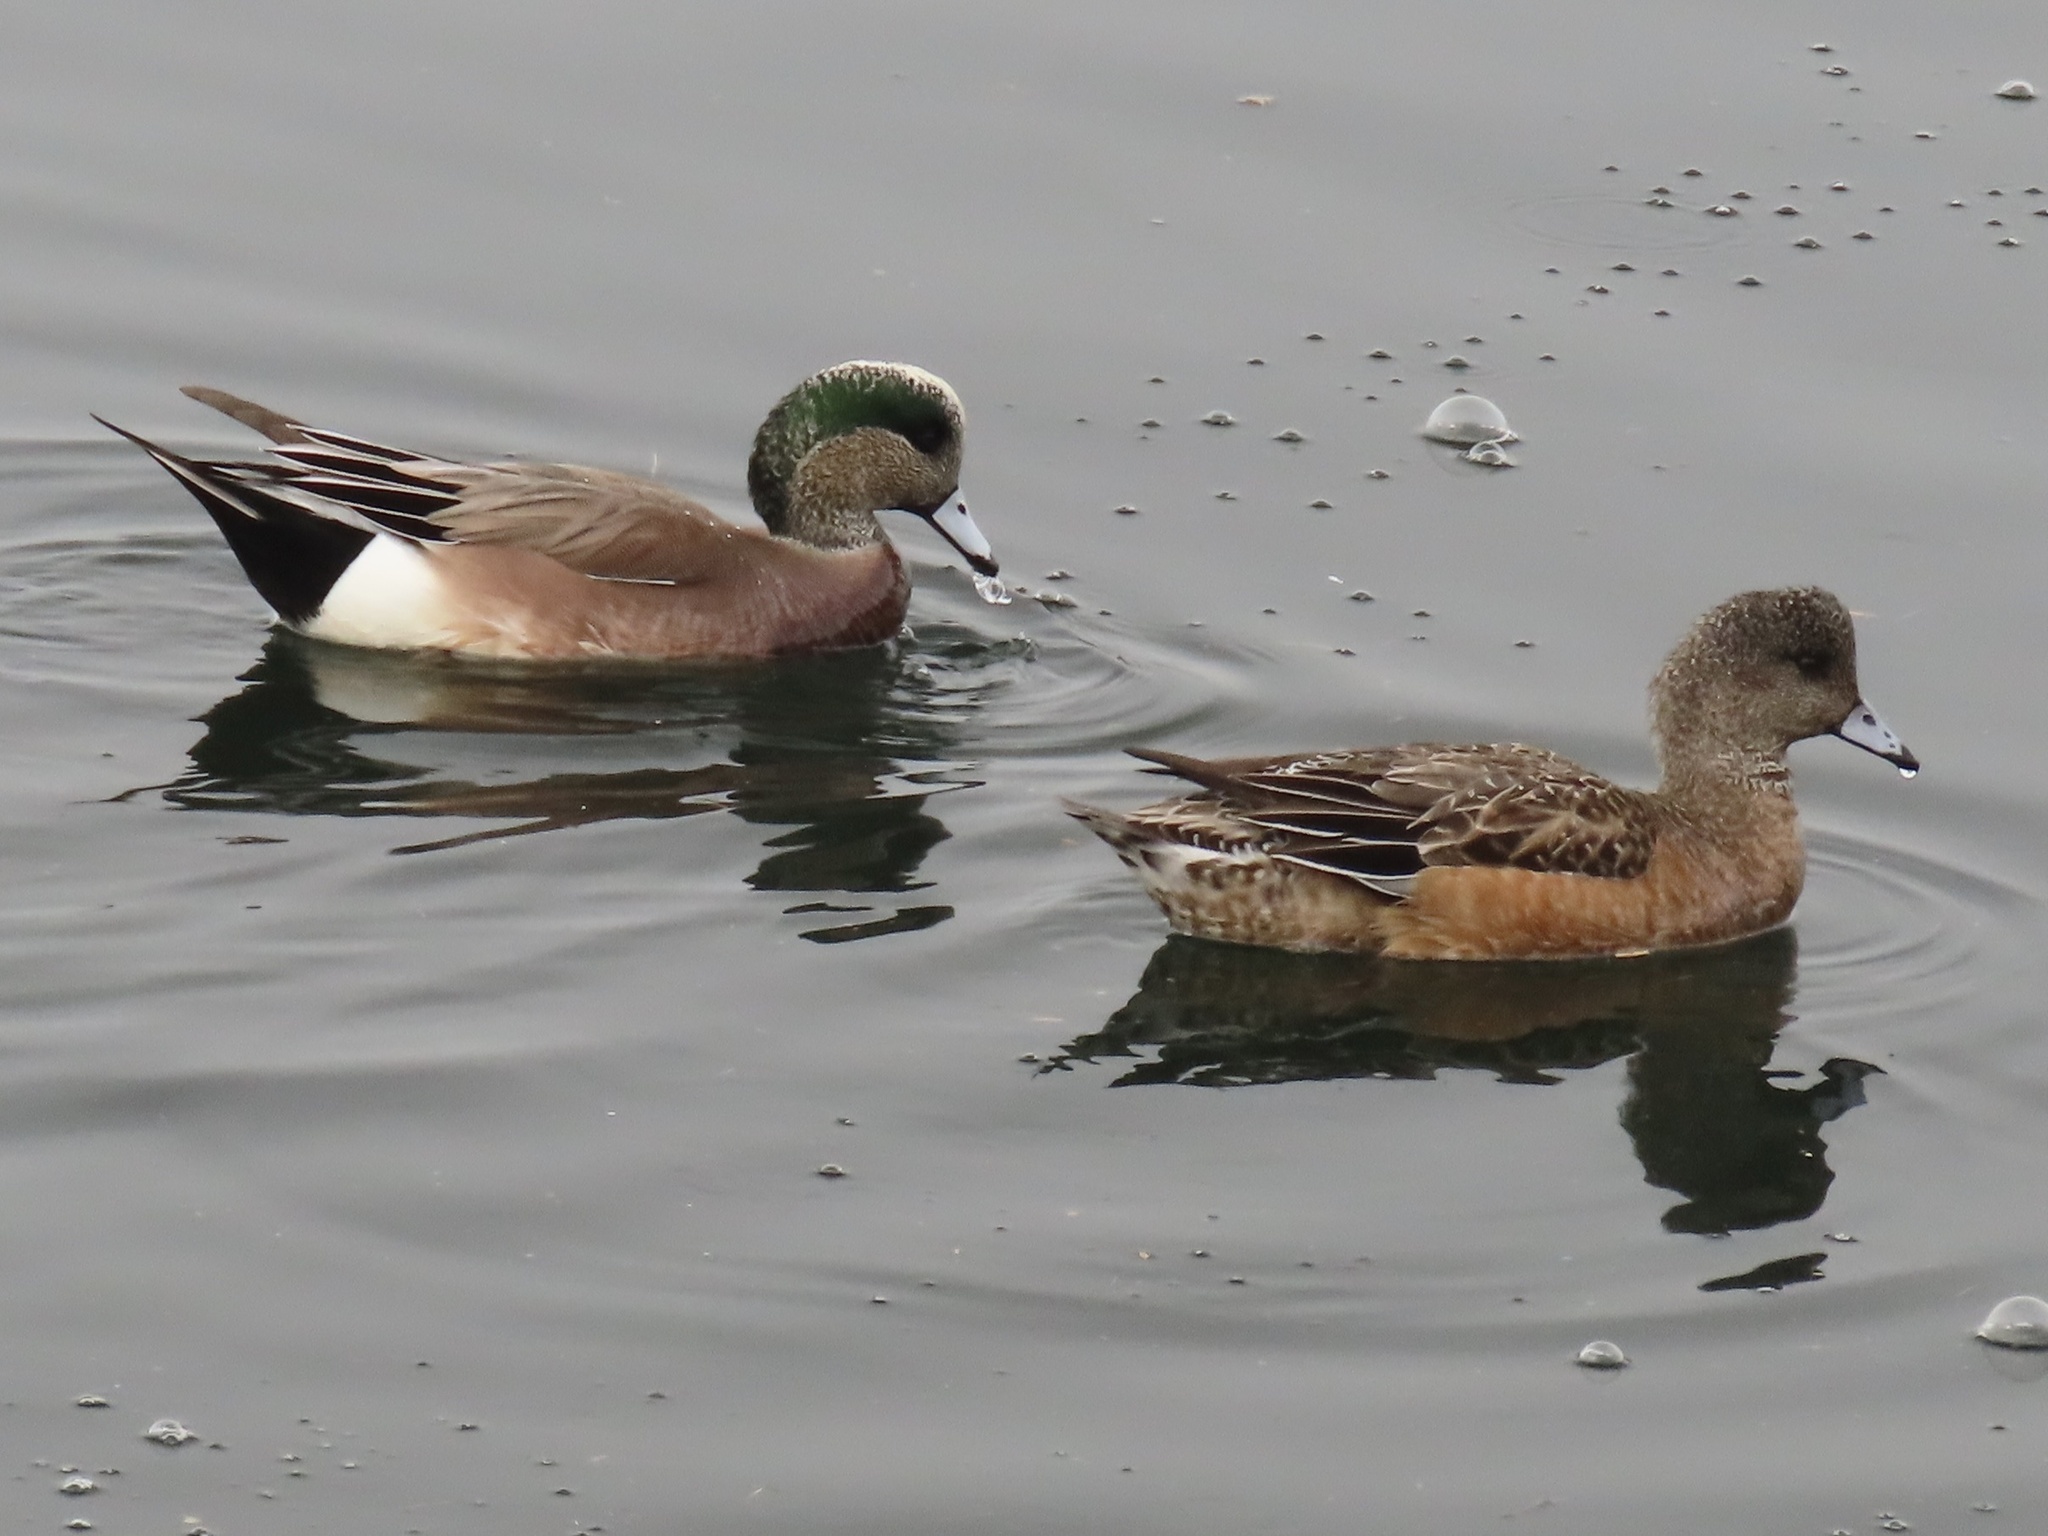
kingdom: Animalia
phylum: Chordata
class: Aves
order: Anseriformes
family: Anatidae
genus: Mareca
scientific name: Mareca americana
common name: American wigeon
